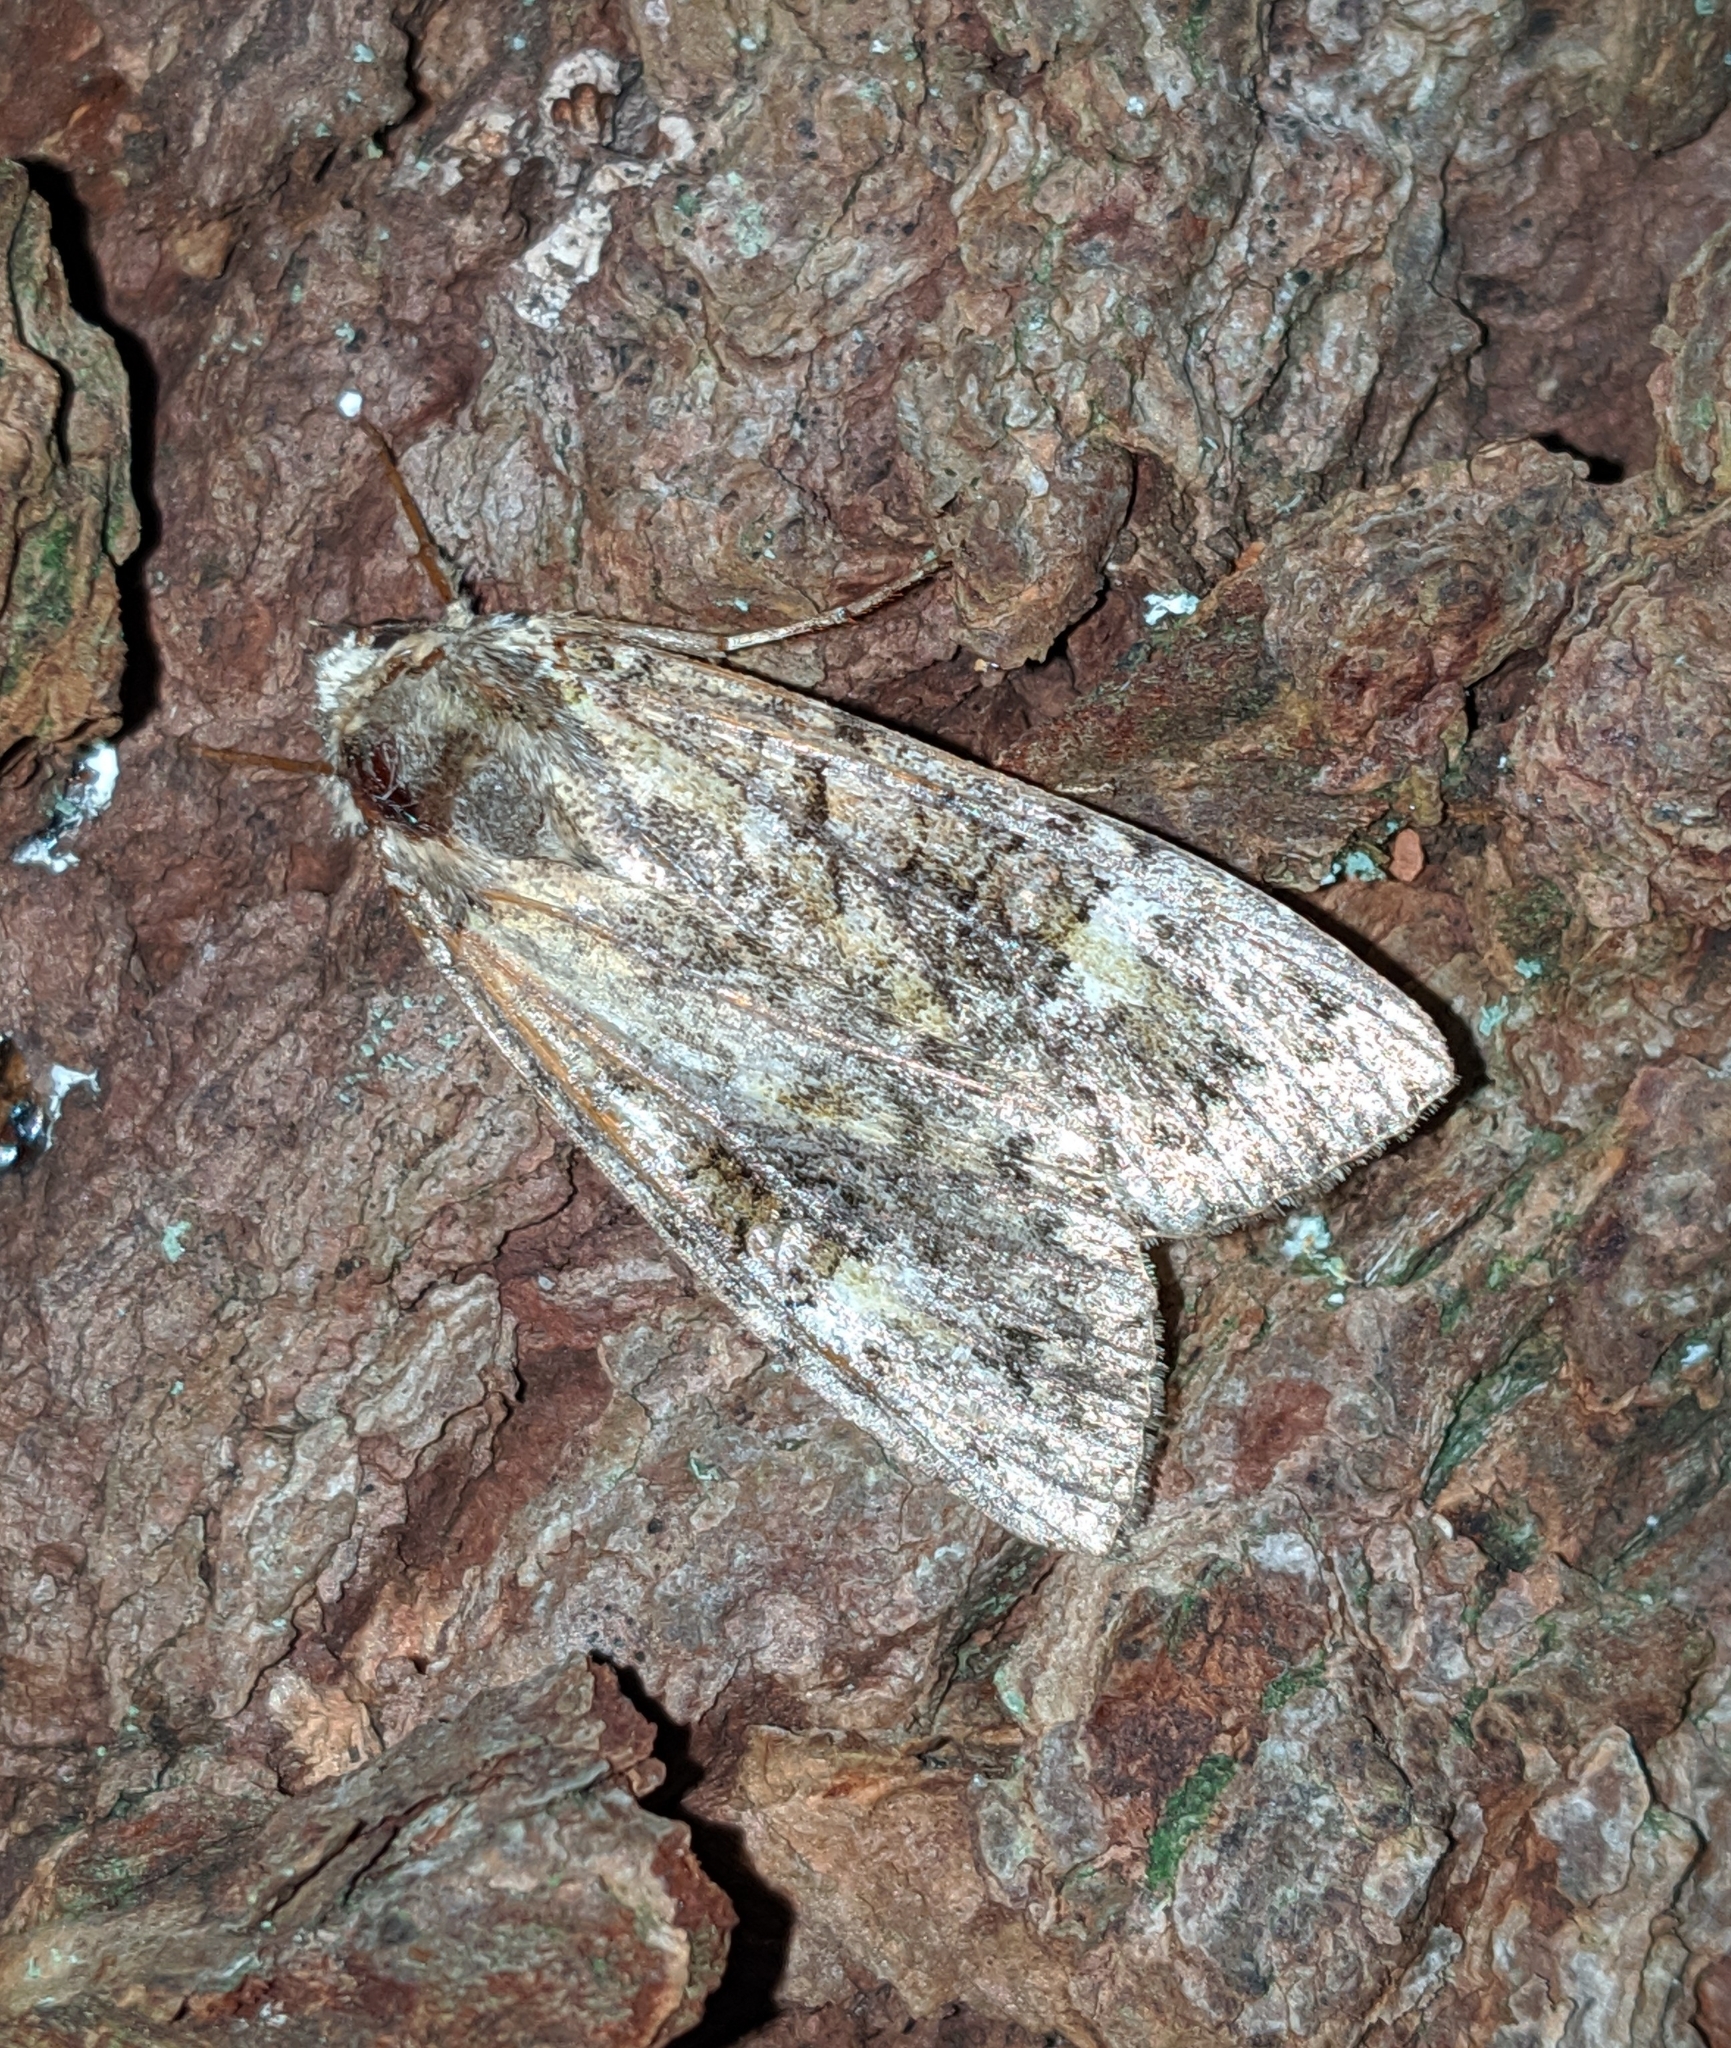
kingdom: Animalia
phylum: Arthropoda
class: Insecta
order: Lepidoptera
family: Noctuidae
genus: Anaplectoides
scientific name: Anaplectoides prasina
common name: Green arches
